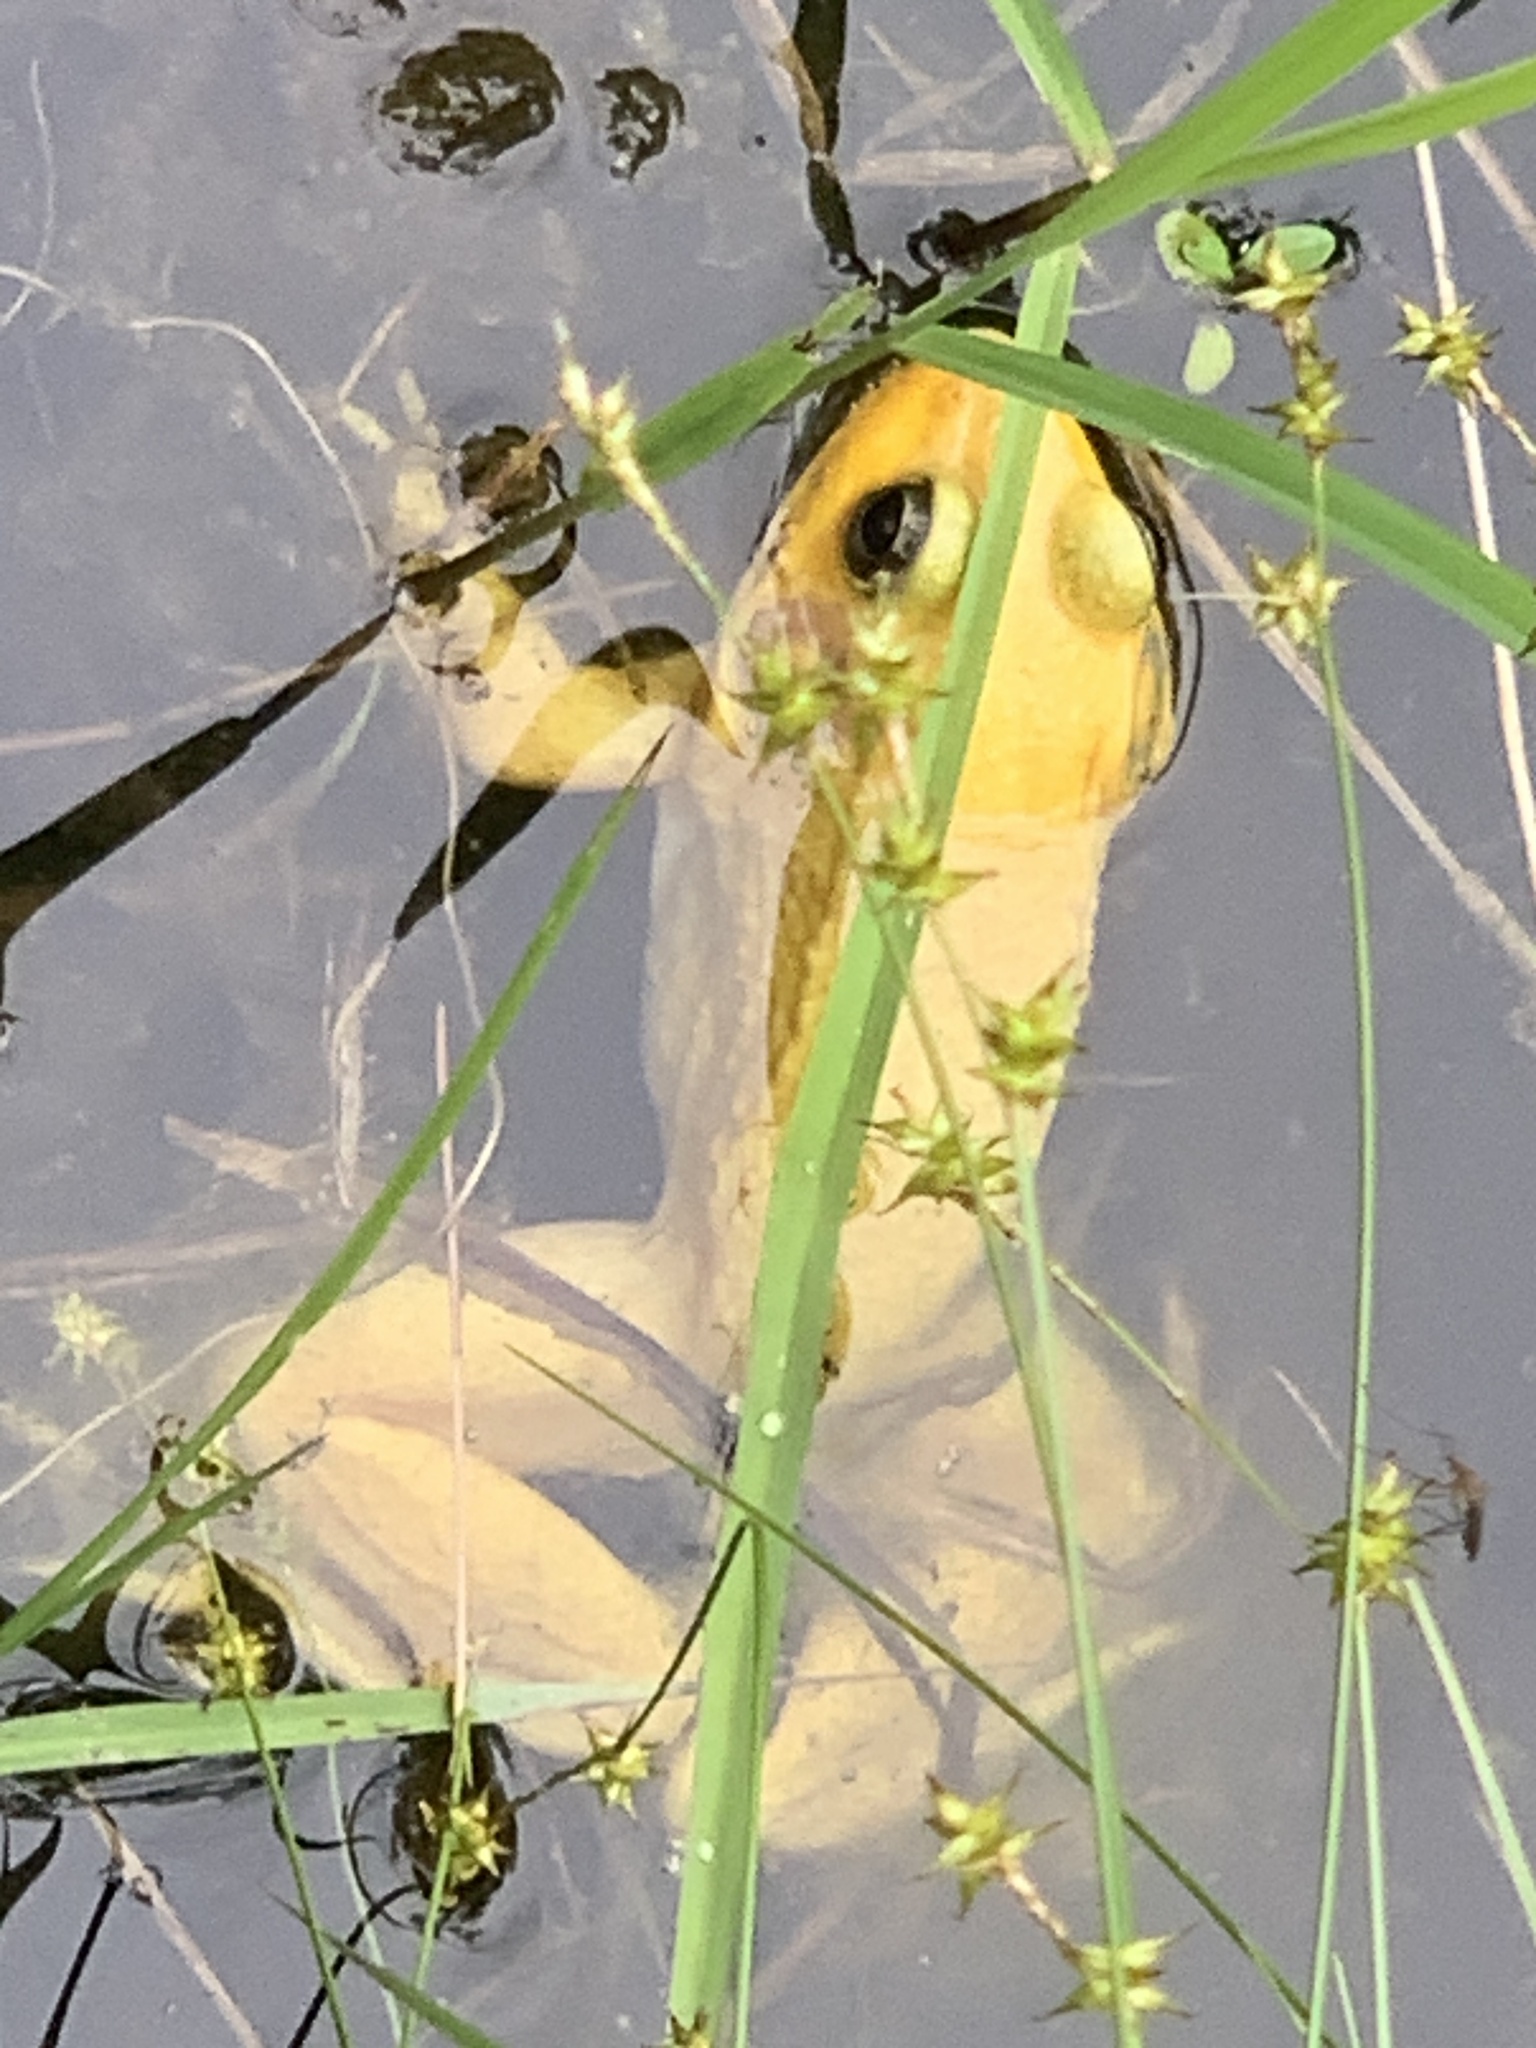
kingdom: Animalia
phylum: Chordata
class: Amphibia
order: Anura
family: Ranidae
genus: Lithobates
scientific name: Lithobates clamitans
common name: Green frog
